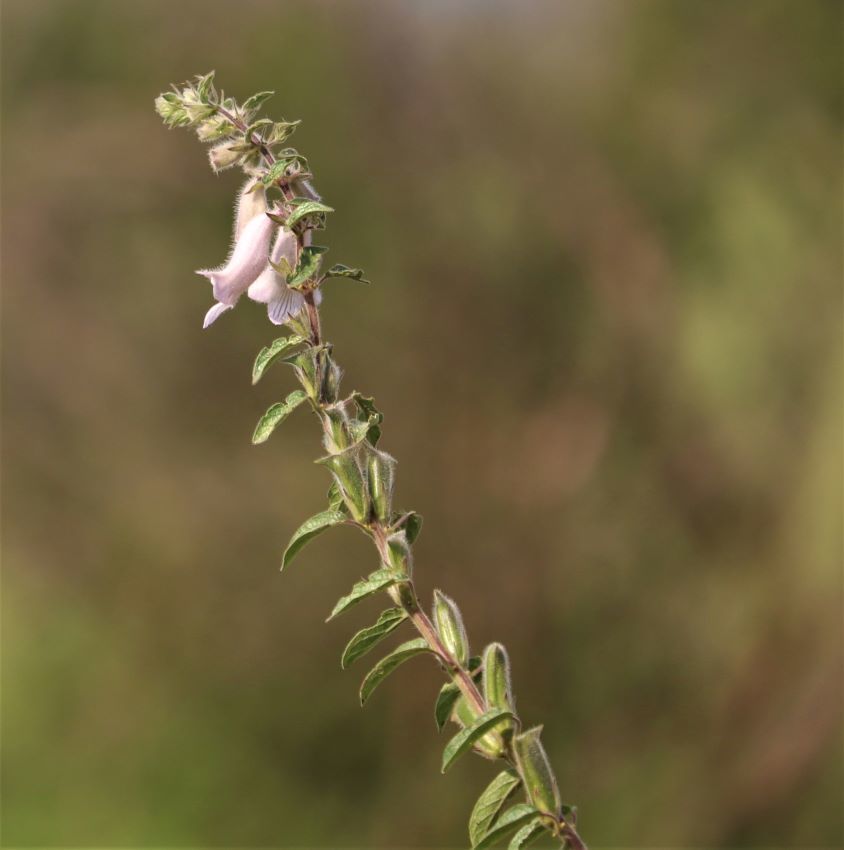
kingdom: Plantae
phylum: Tracheophyta
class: Magnoliopsida
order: Lamiales
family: Pedaliaceae
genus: Sesamum
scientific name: Sesamum trilobum
